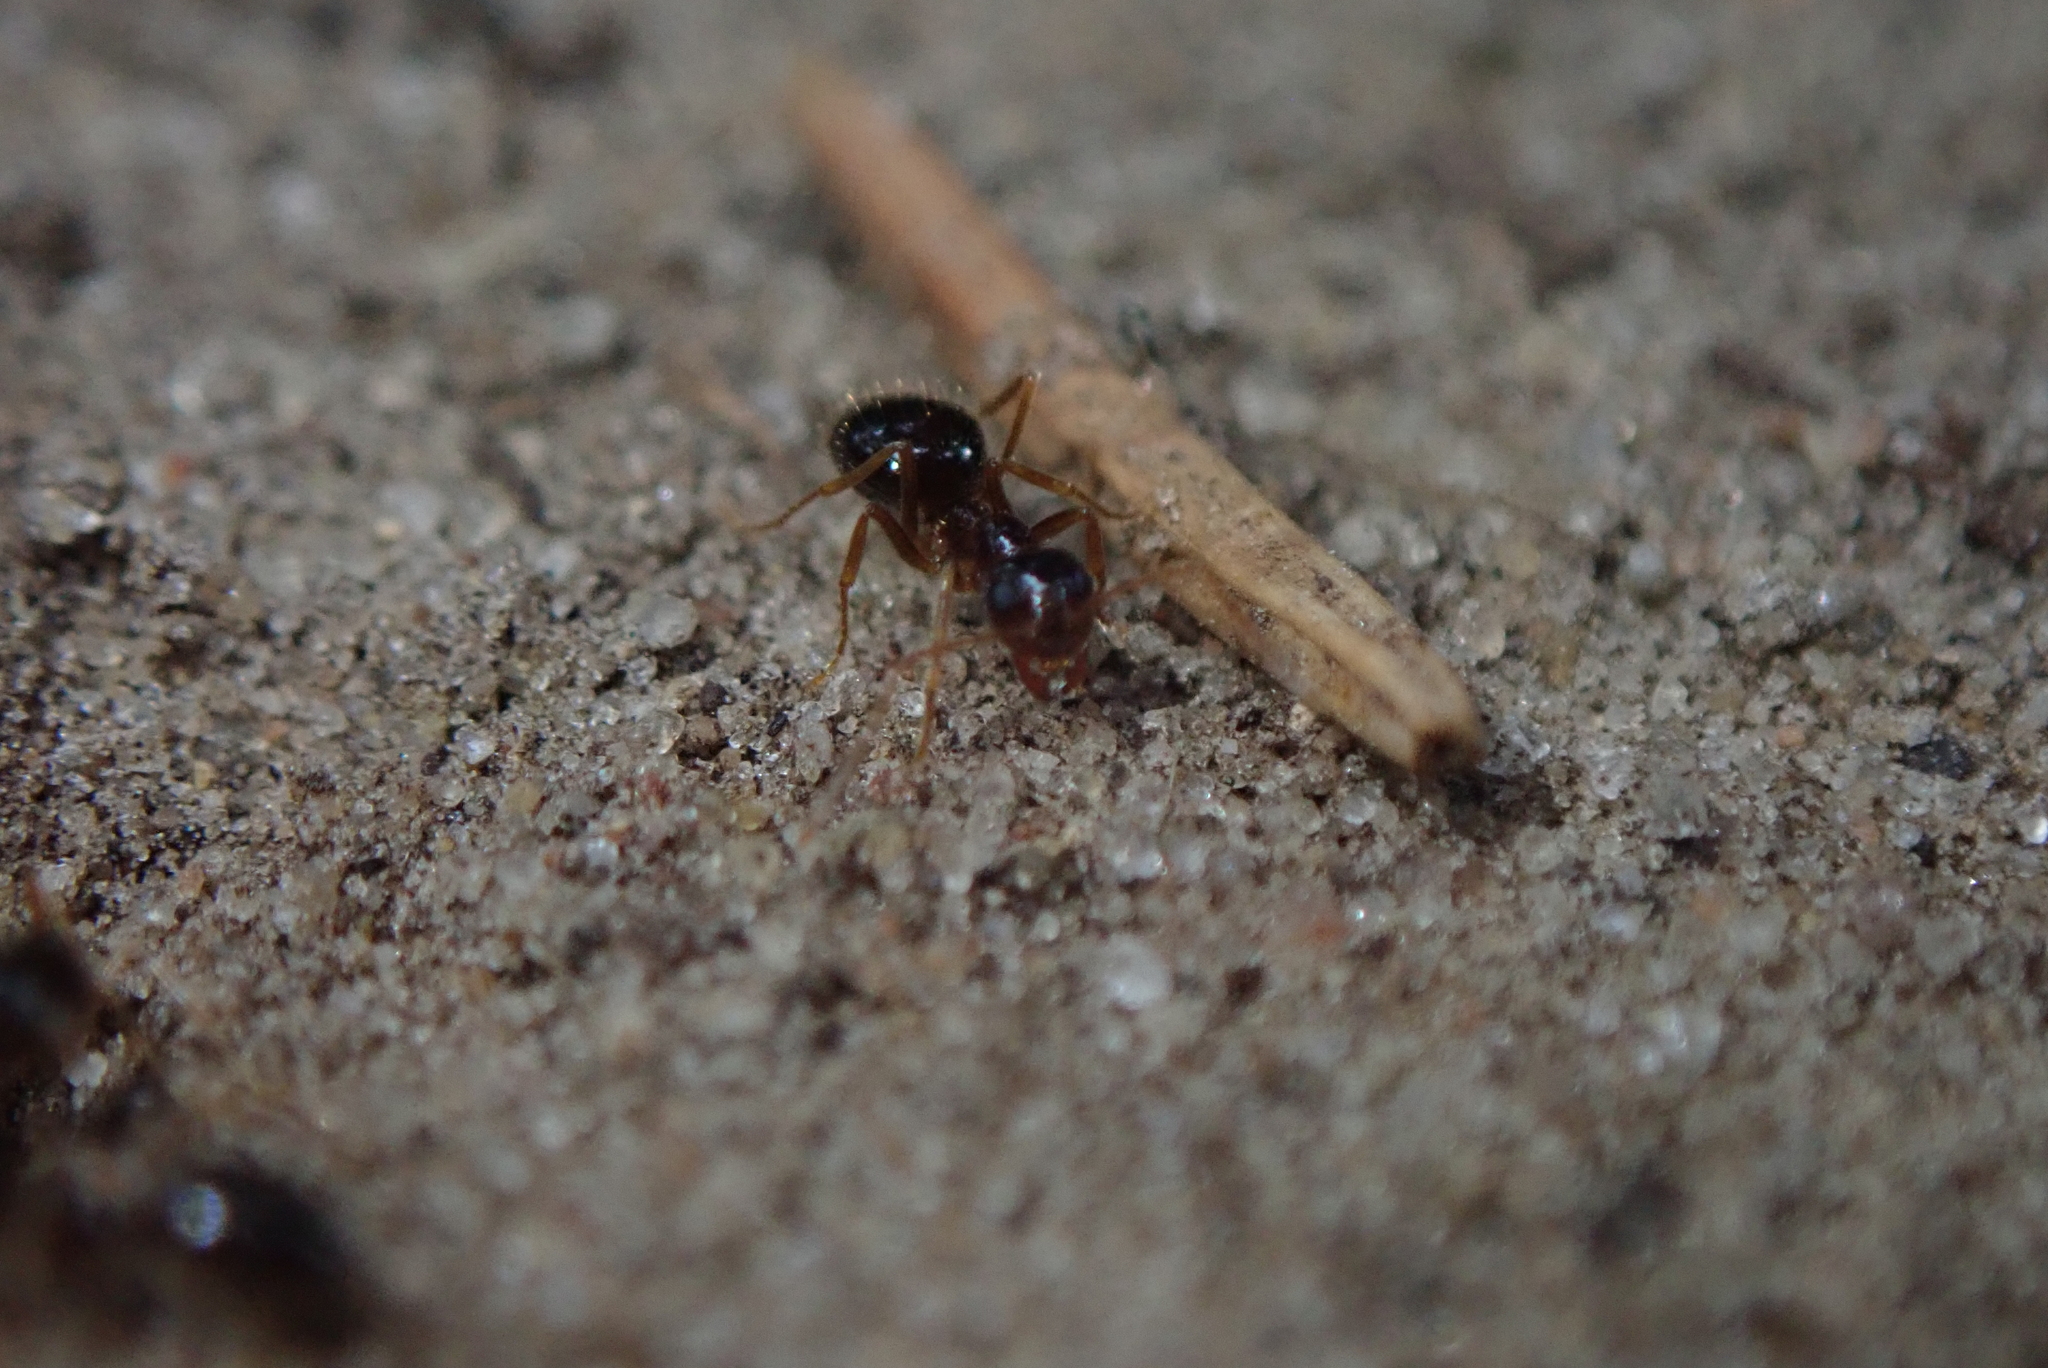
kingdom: Animalia
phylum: Arthropoda
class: Insecta
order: Hymenoptera
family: Formicidae
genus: Prenolepis
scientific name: Prenolepis imparis
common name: Small honey ant
